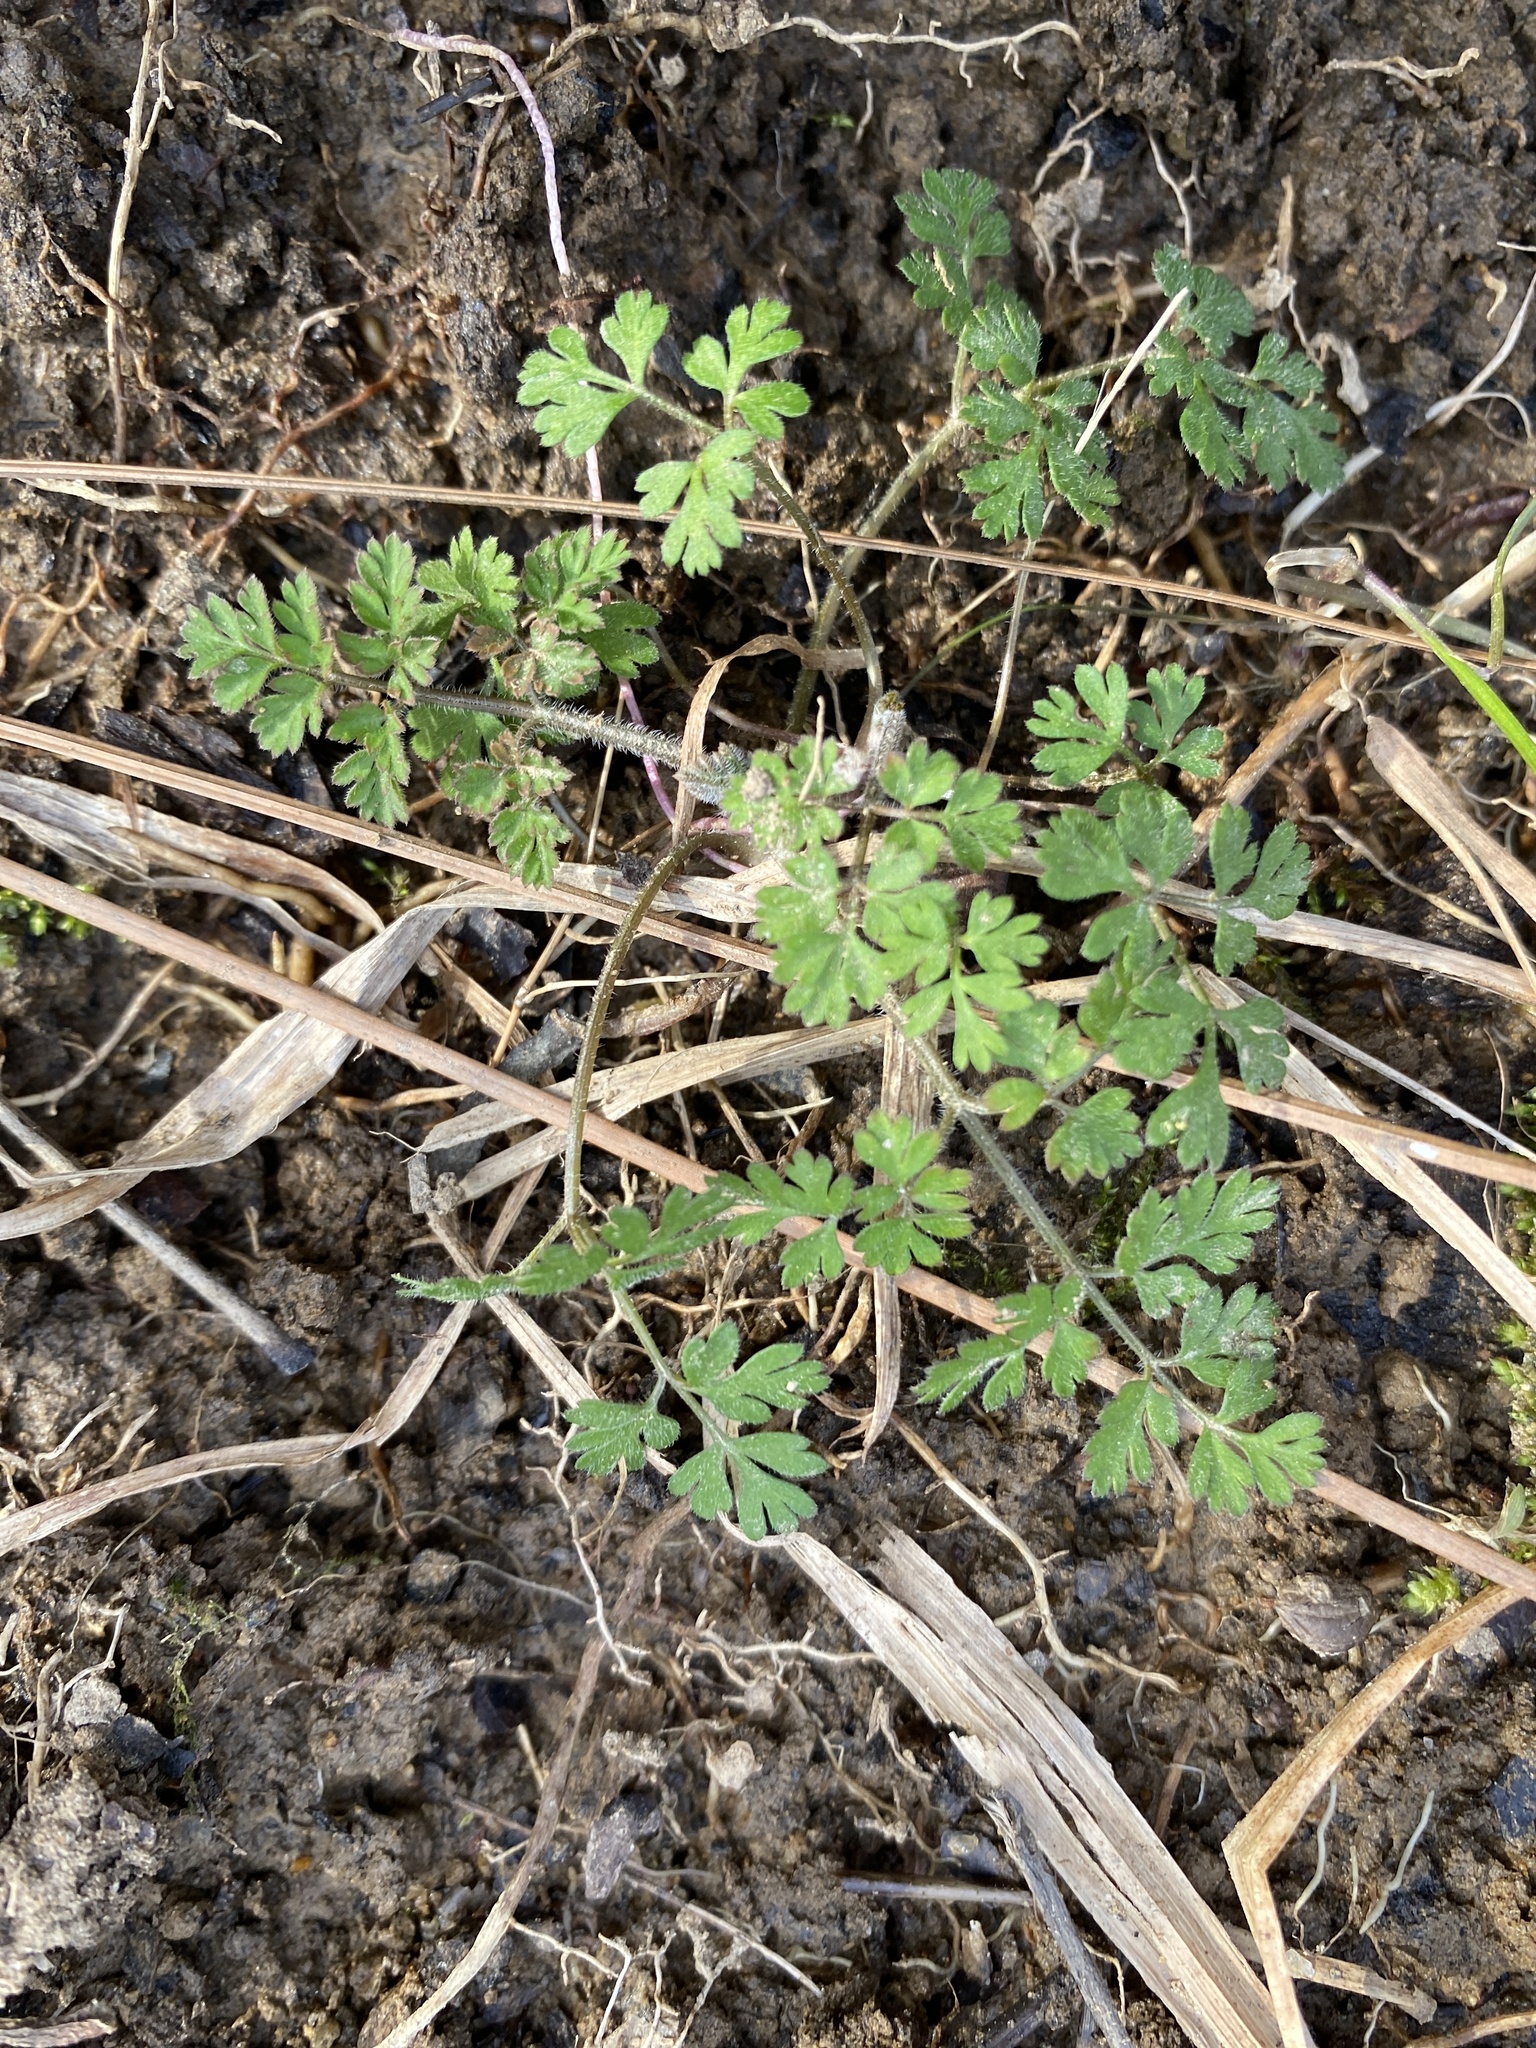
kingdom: Plantae
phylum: Tracheophyta
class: Magnoliopsida
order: Apiales
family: Apiaceae
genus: Chaerophyllum
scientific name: Chaerophyllum tainturieri
